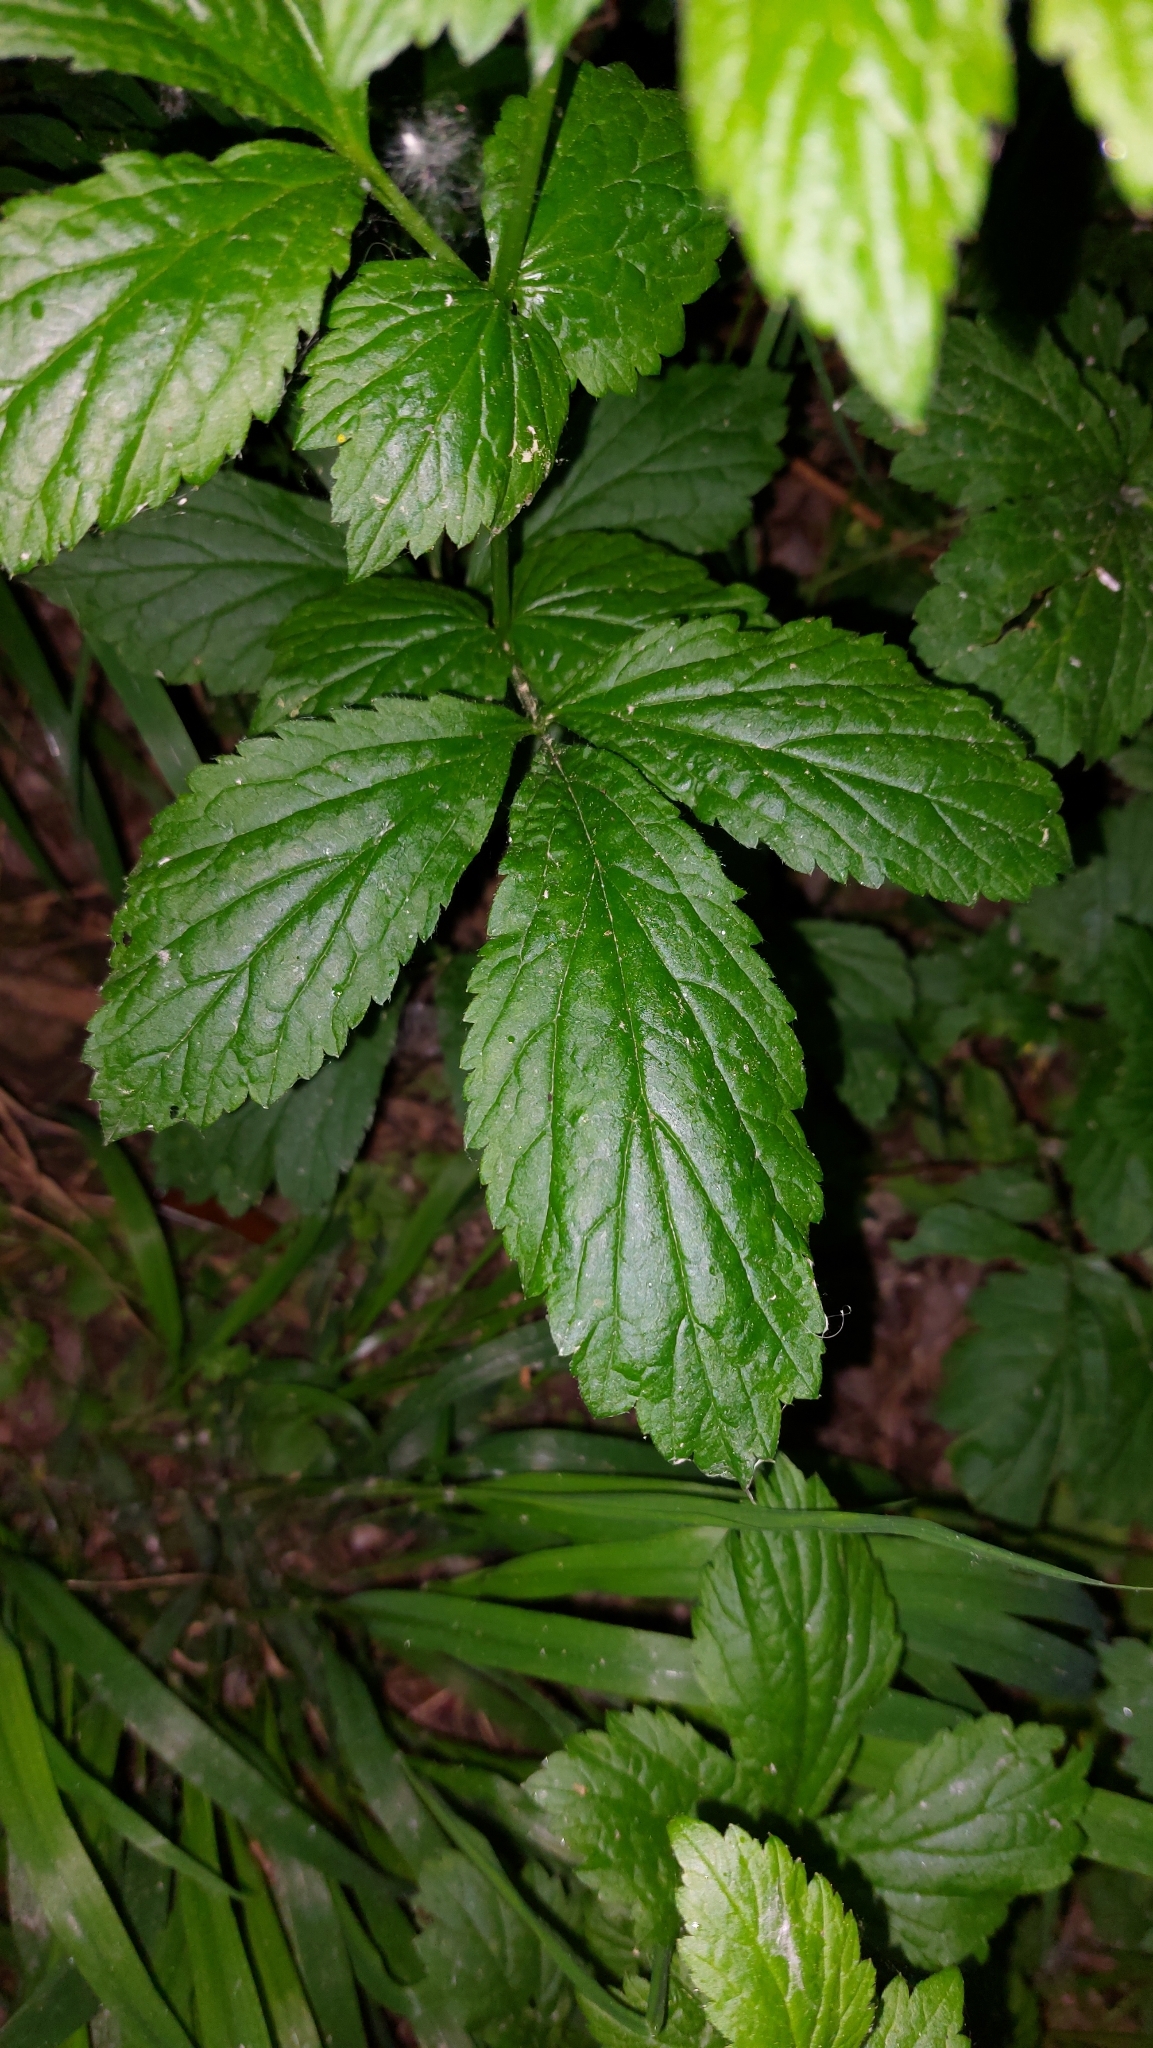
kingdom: Plantae
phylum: Tracheophyta
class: Magnoliopsida
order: Rosales
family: Rosaceae
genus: Geum
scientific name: Geum urbanum
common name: Wood avens
